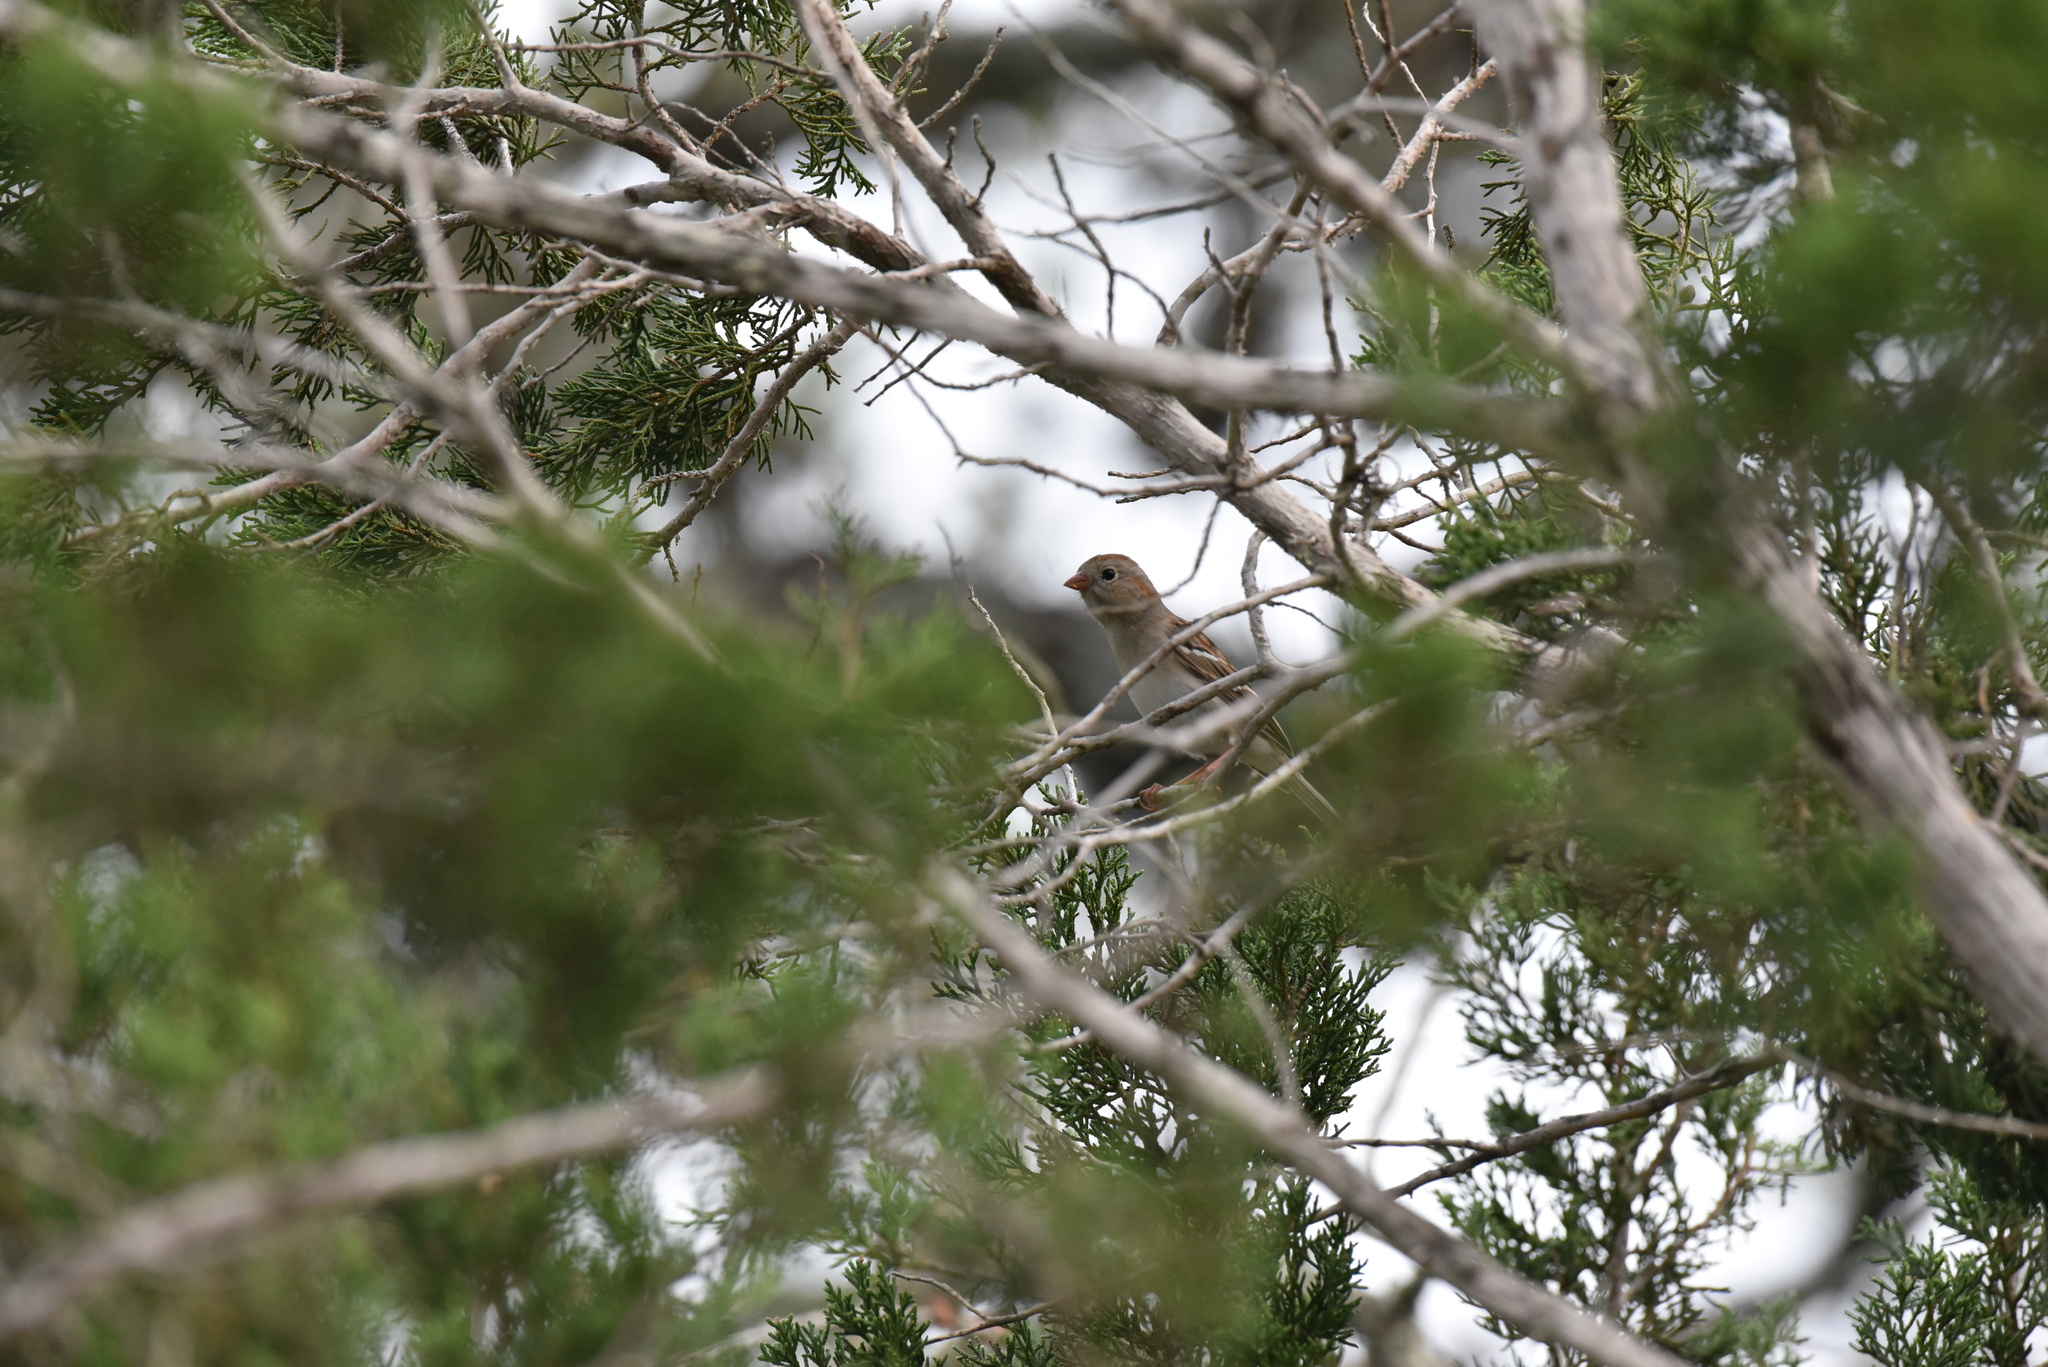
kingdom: Animalia
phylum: Chordata
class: Aves
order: Passeriformes
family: Passerellidae
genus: Spizella
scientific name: Spizella pusilla
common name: Field sparrow
